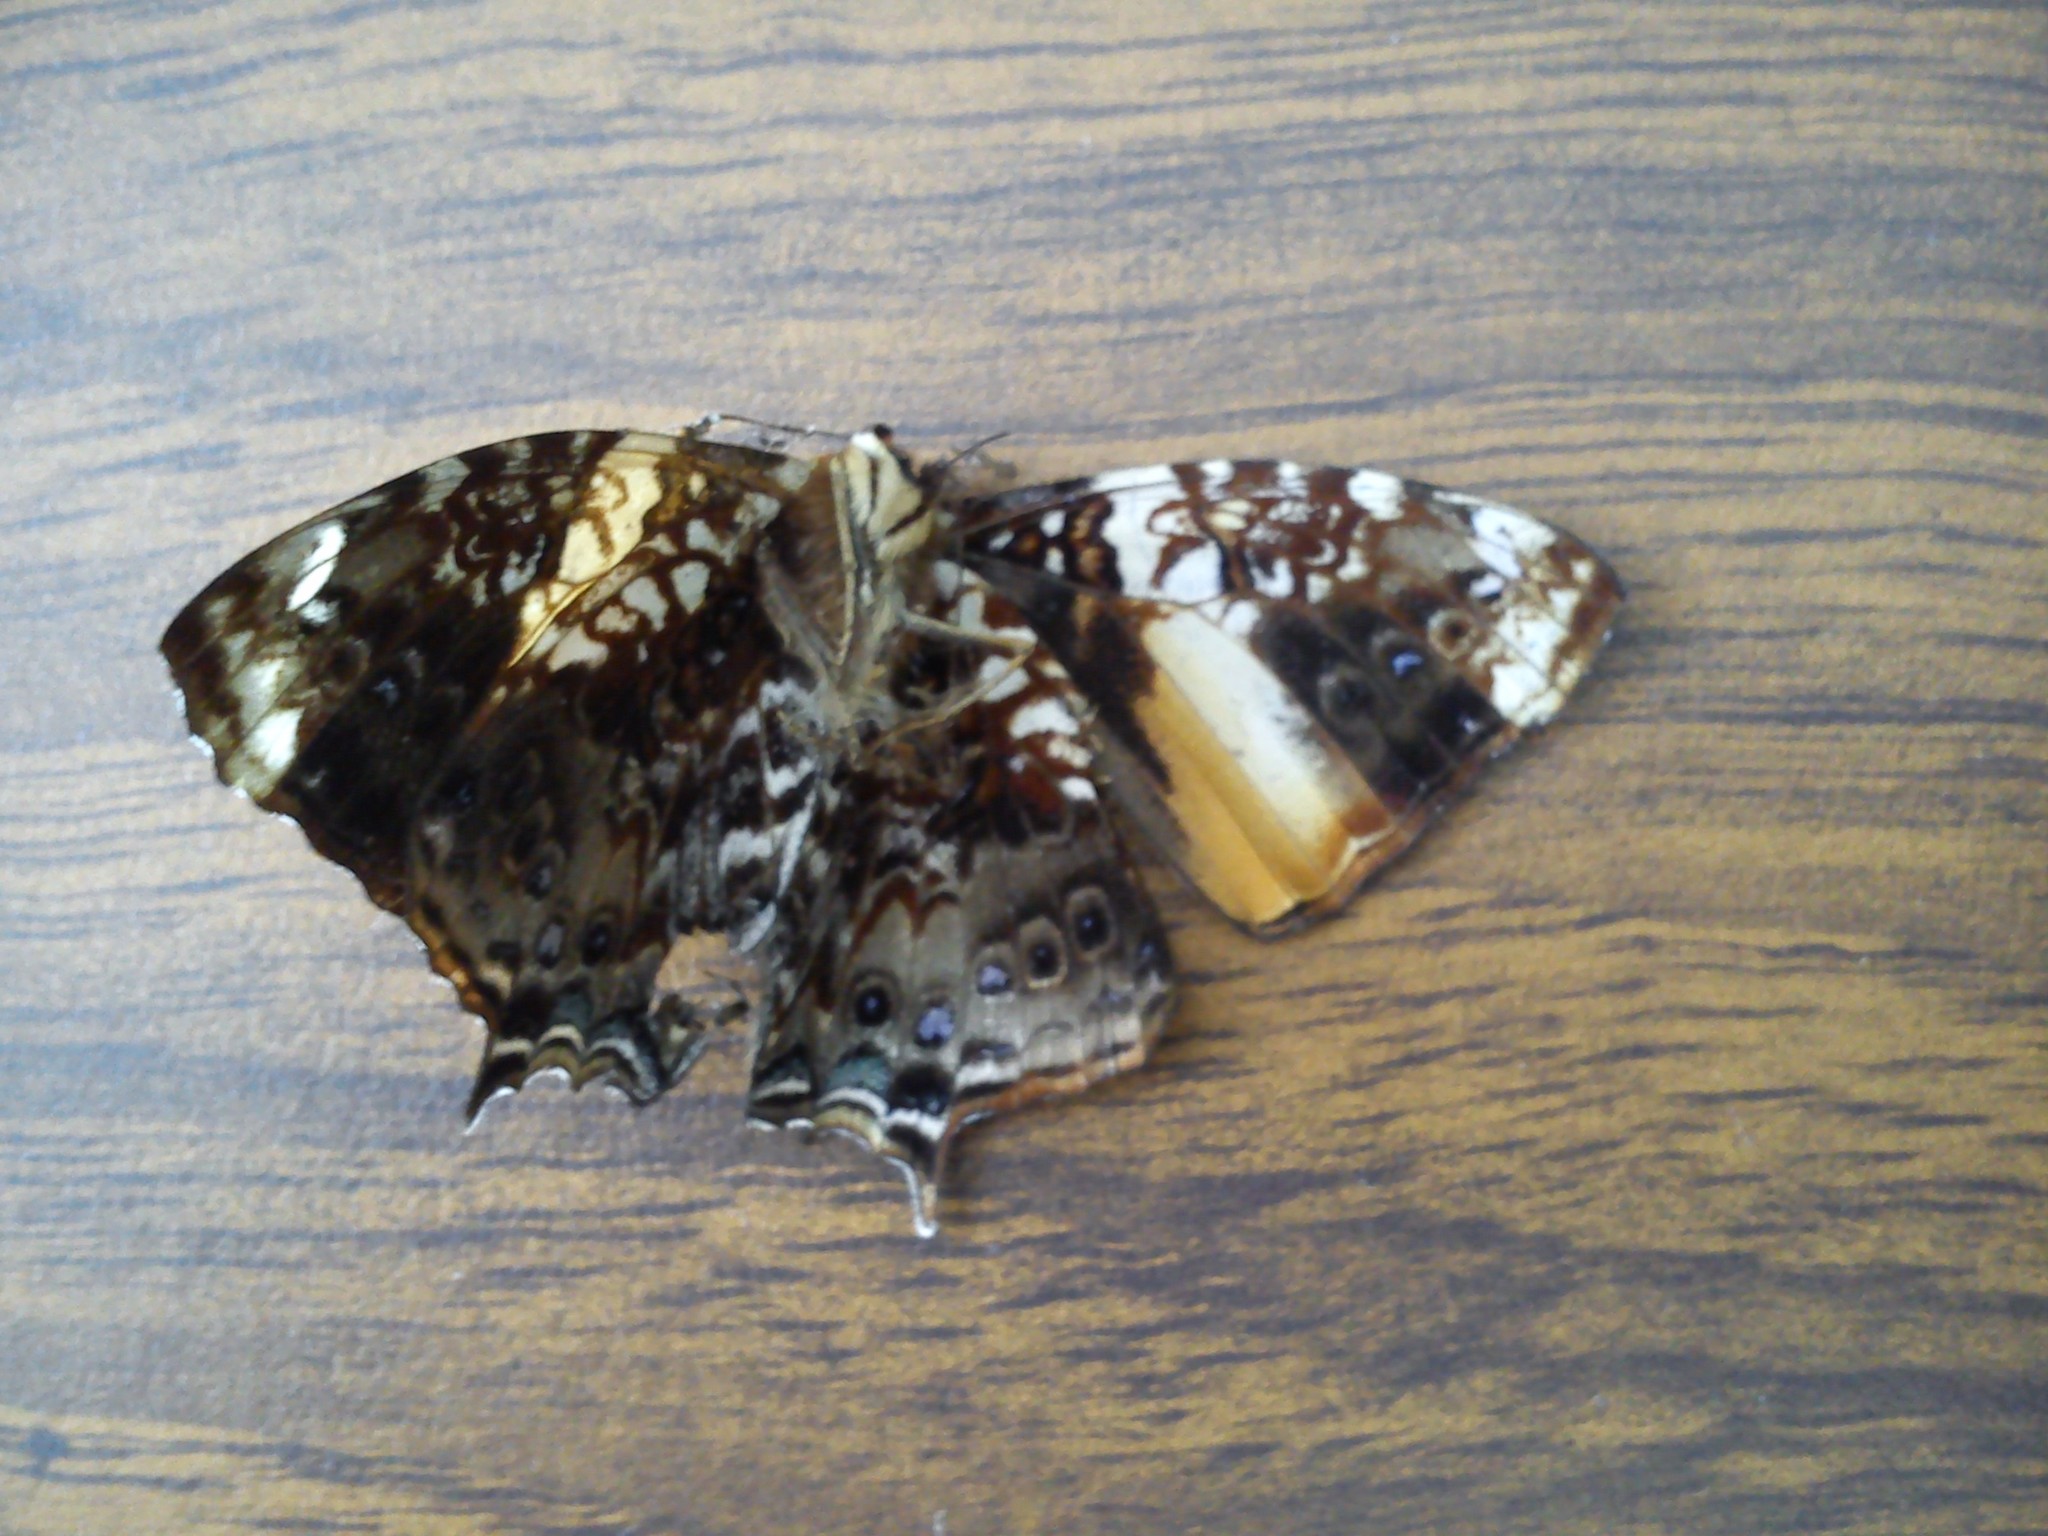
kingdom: Animalia
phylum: Arthropoda
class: Insecta
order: Lepidoptera
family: Nymphalidae
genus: Hypanartia
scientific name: Hypanartia godmanii
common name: Godman's mapwing
